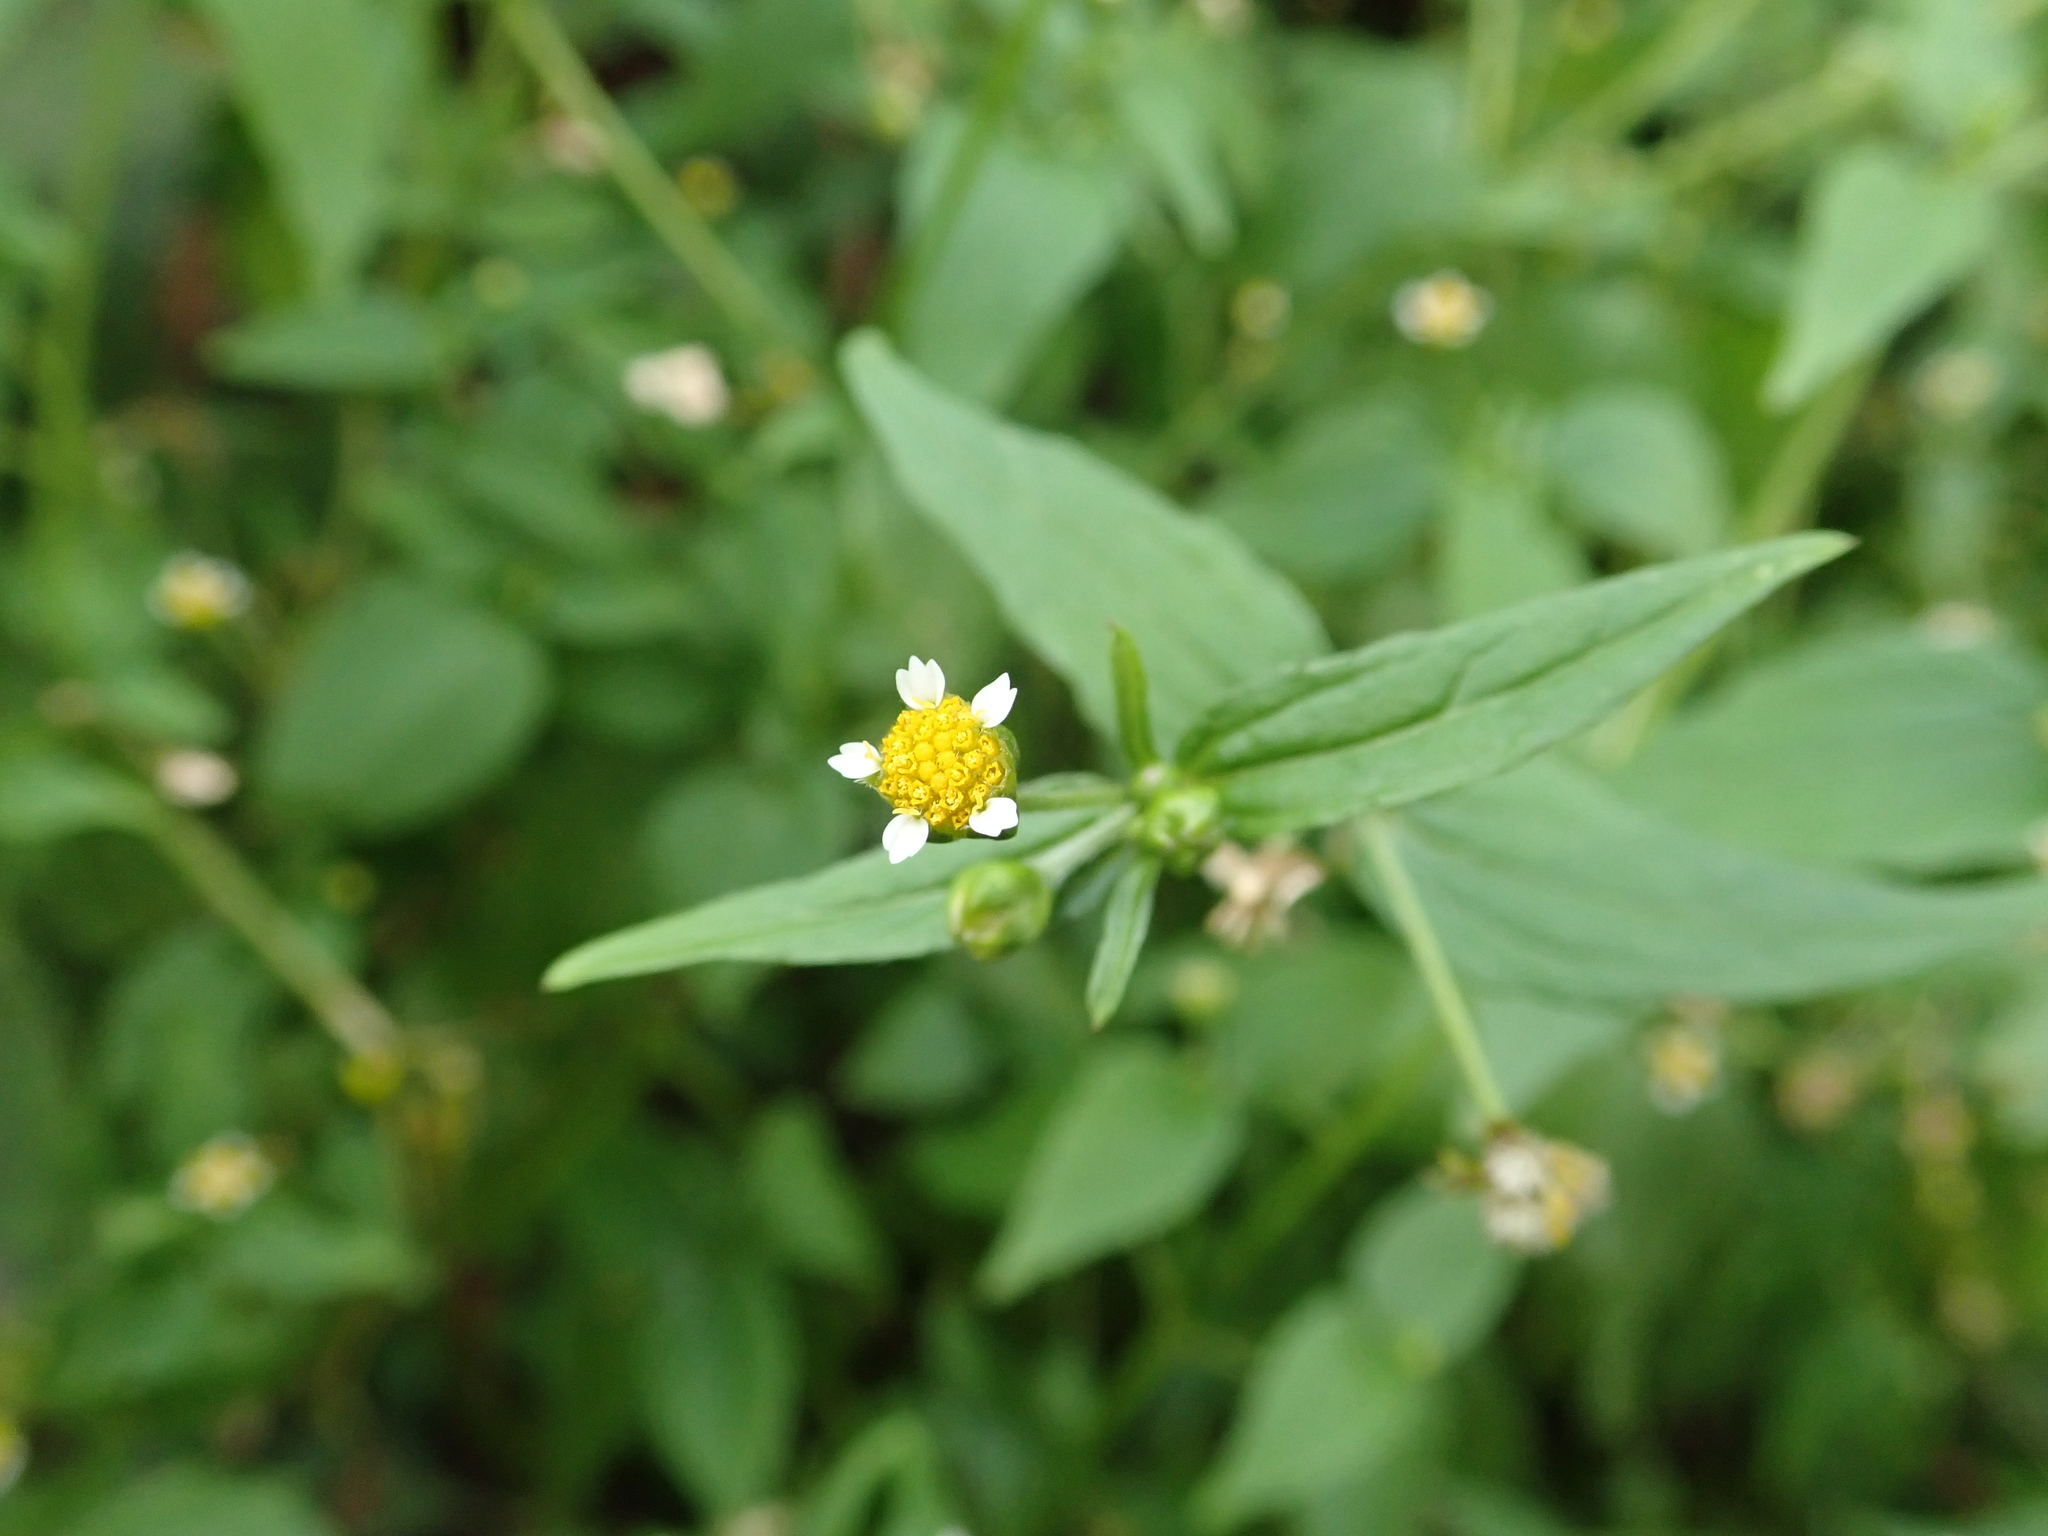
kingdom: Plantae
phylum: Tracheophyta
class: Magnoliopsida
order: Asterales
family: Asteraceae
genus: Galinsoga
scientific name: Galinsoga parviflora
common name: Gallant soldier
